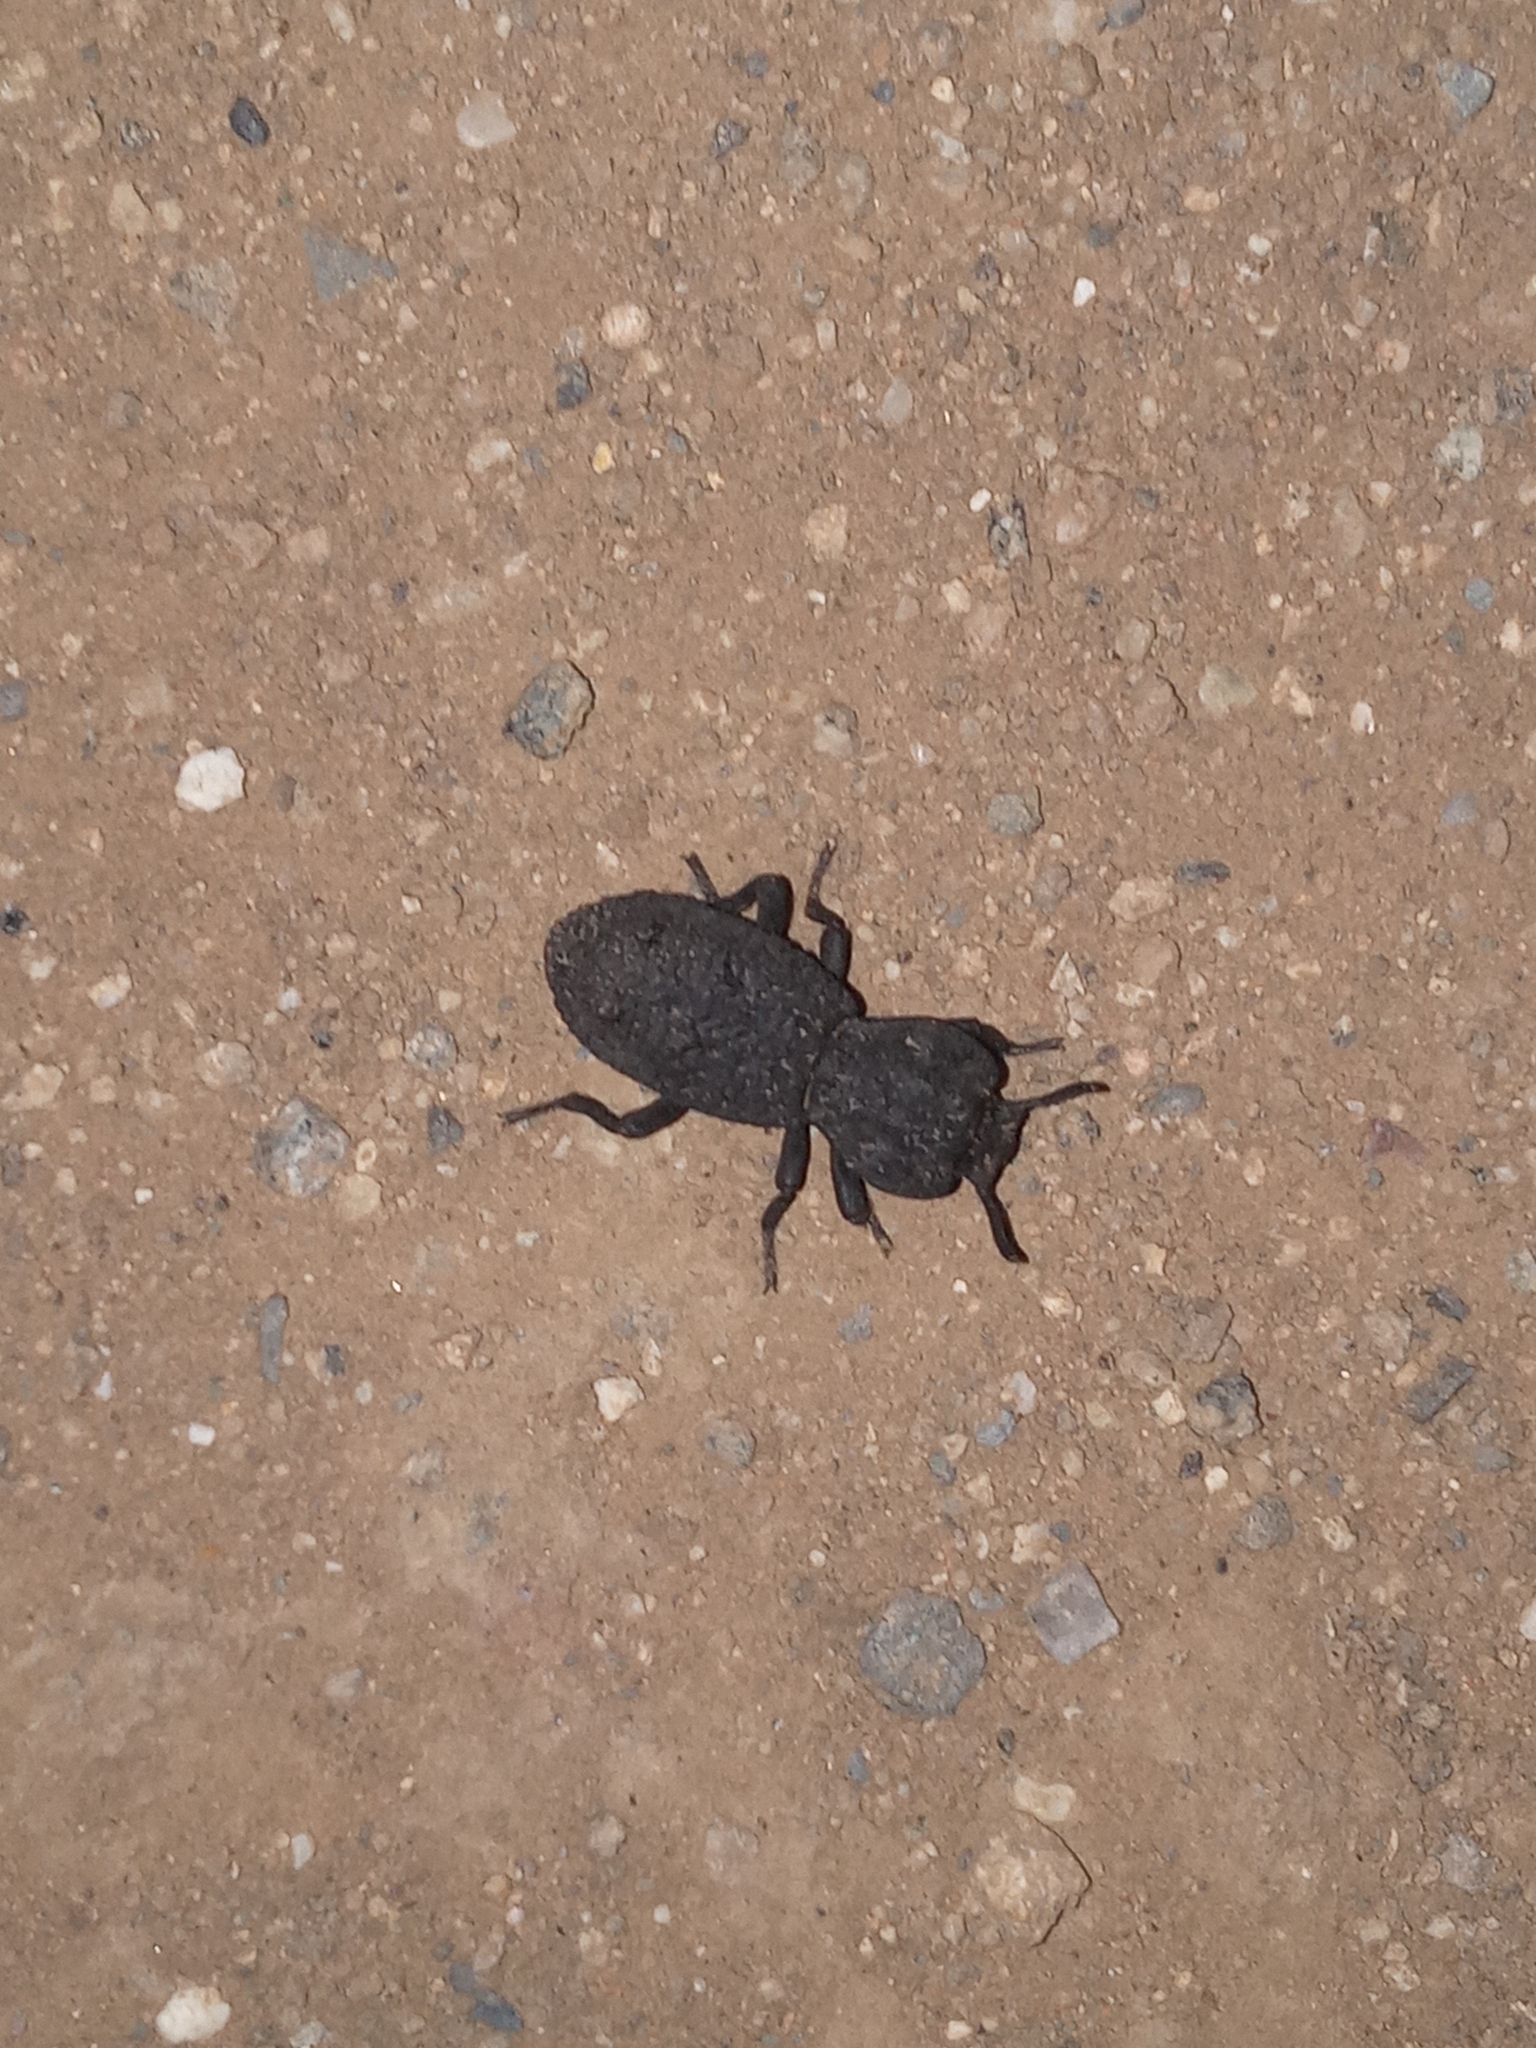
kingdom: Animalia
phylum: Arthropoda
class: Insecta
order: Coleoptera
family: Zopheridae
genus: Phloeodes
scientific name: Phloeodes diabolicus
